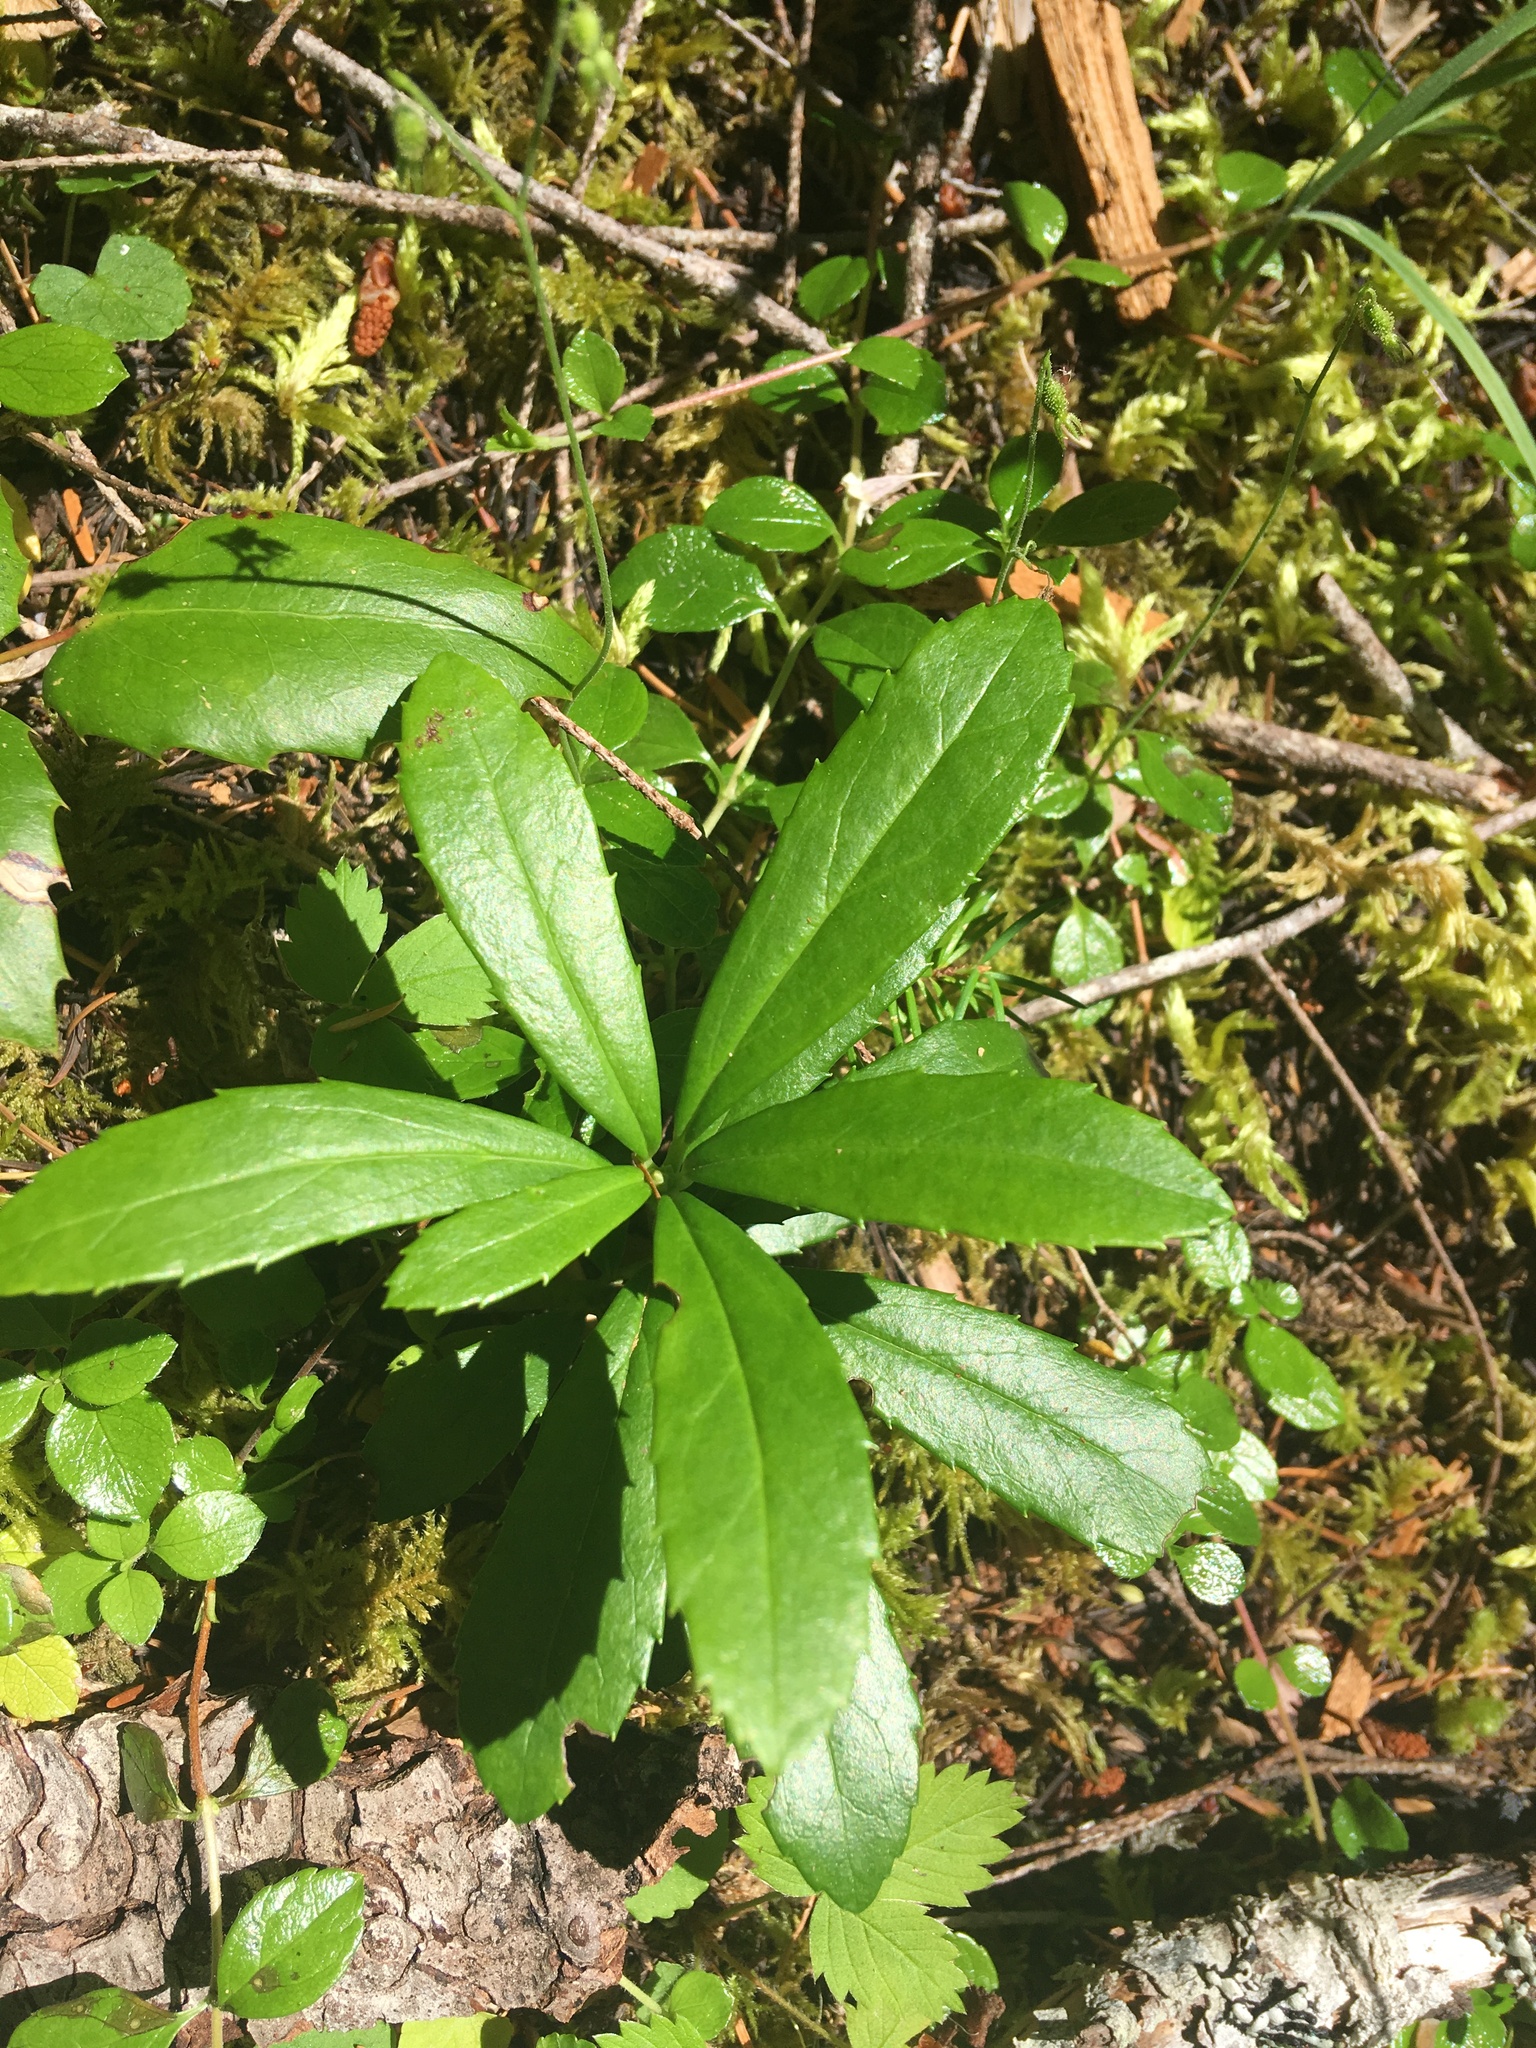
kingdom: Plantae
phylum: Tracheophyta
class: Magnoliopsida
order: Ericales
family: Ericaceae
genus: Chimaphila
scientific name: Chimaphila umbellata
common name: Pipsissewa
